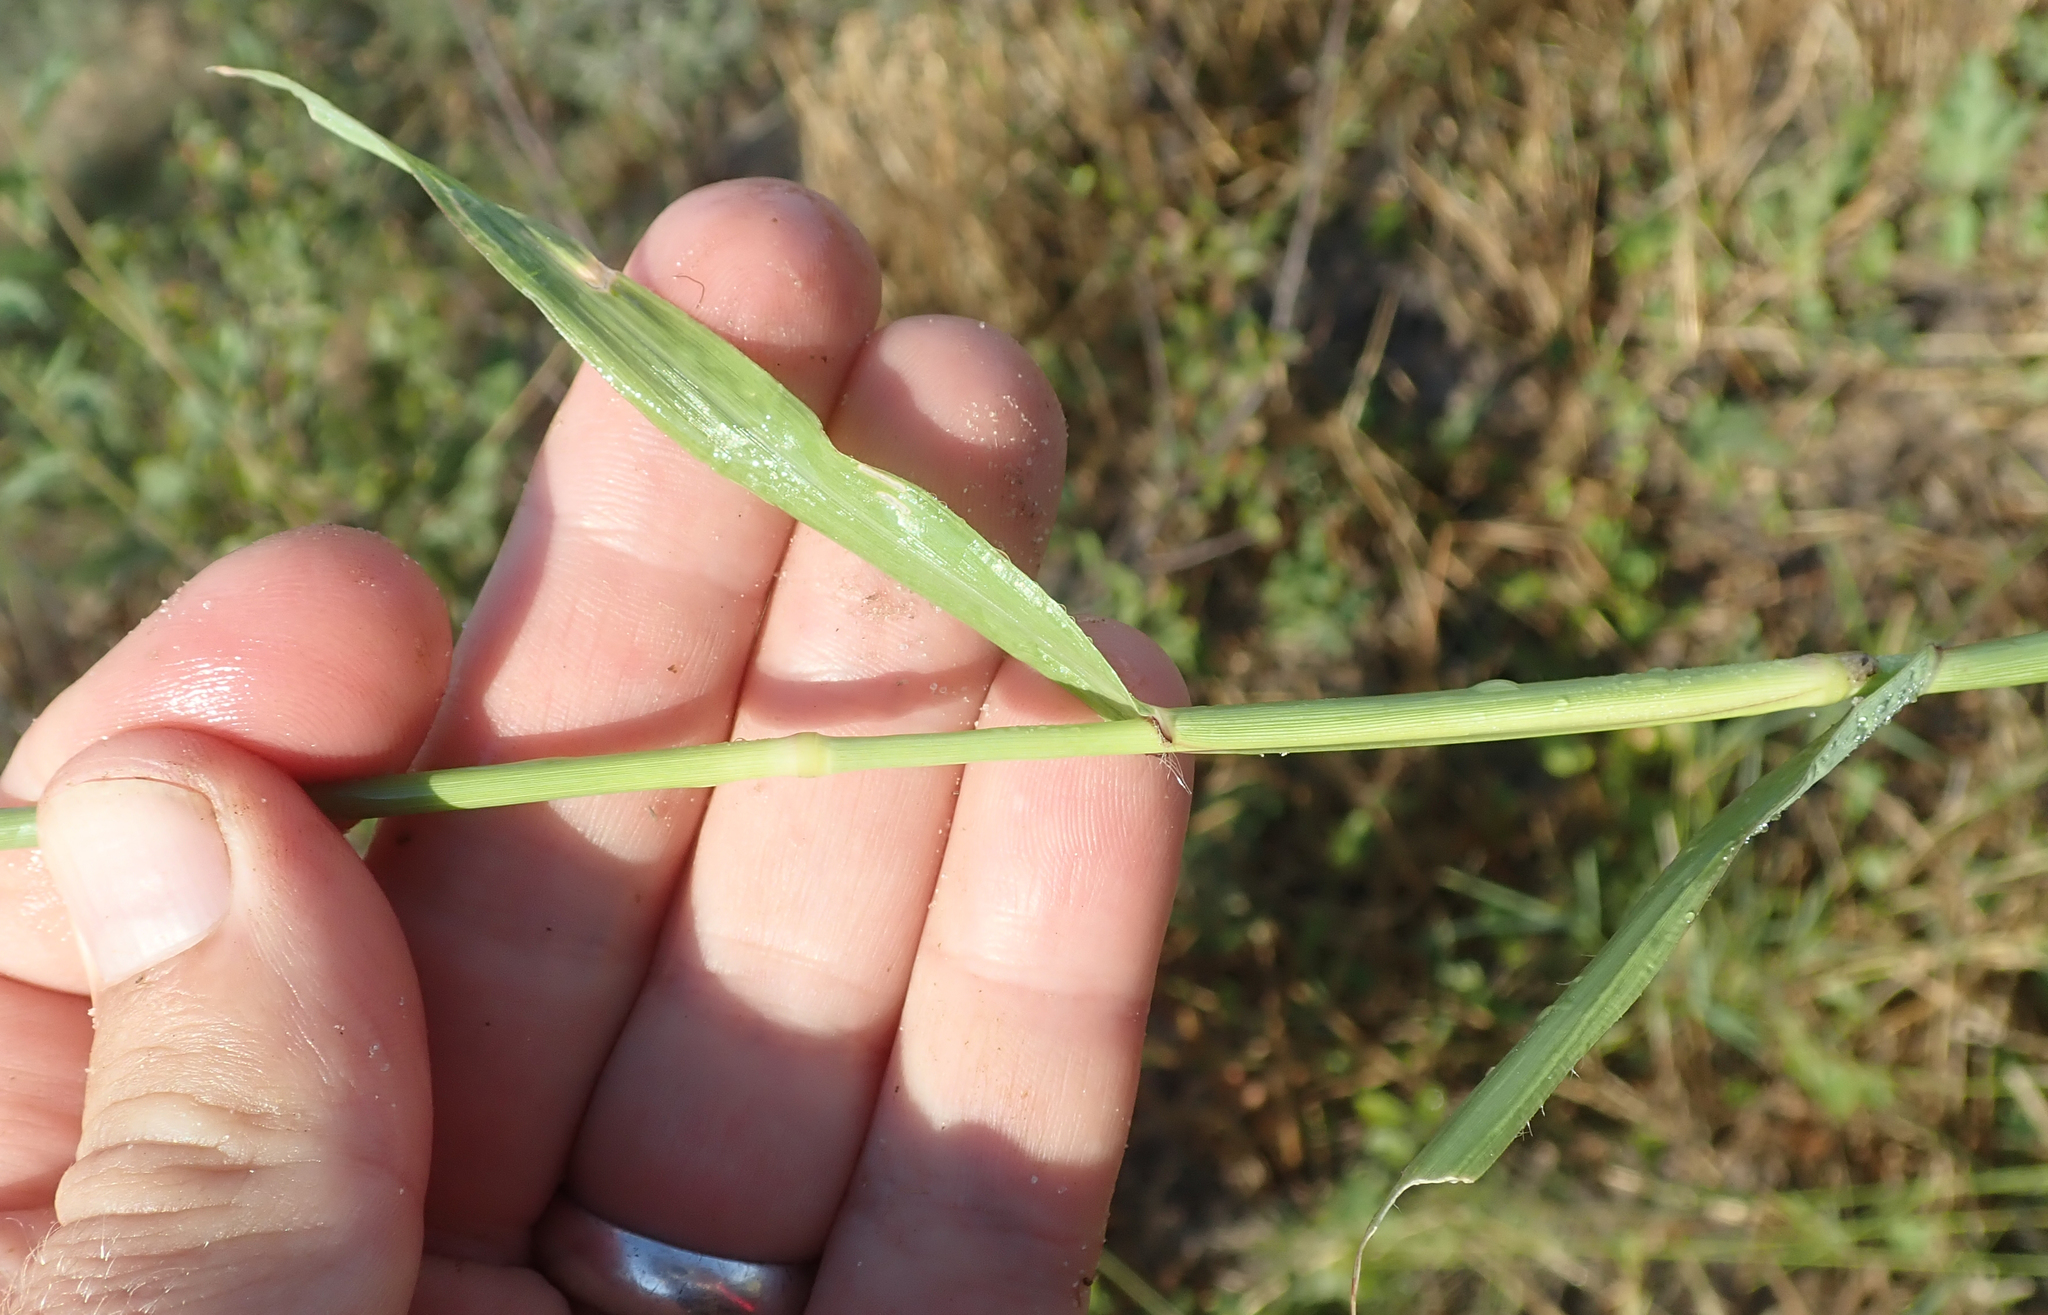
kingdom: Plantae
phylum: Tracheophyta
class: Liliopsida
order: Poales
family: Poaceae
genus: Dactyloctenium
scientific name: Dactyloctenium giganteum
